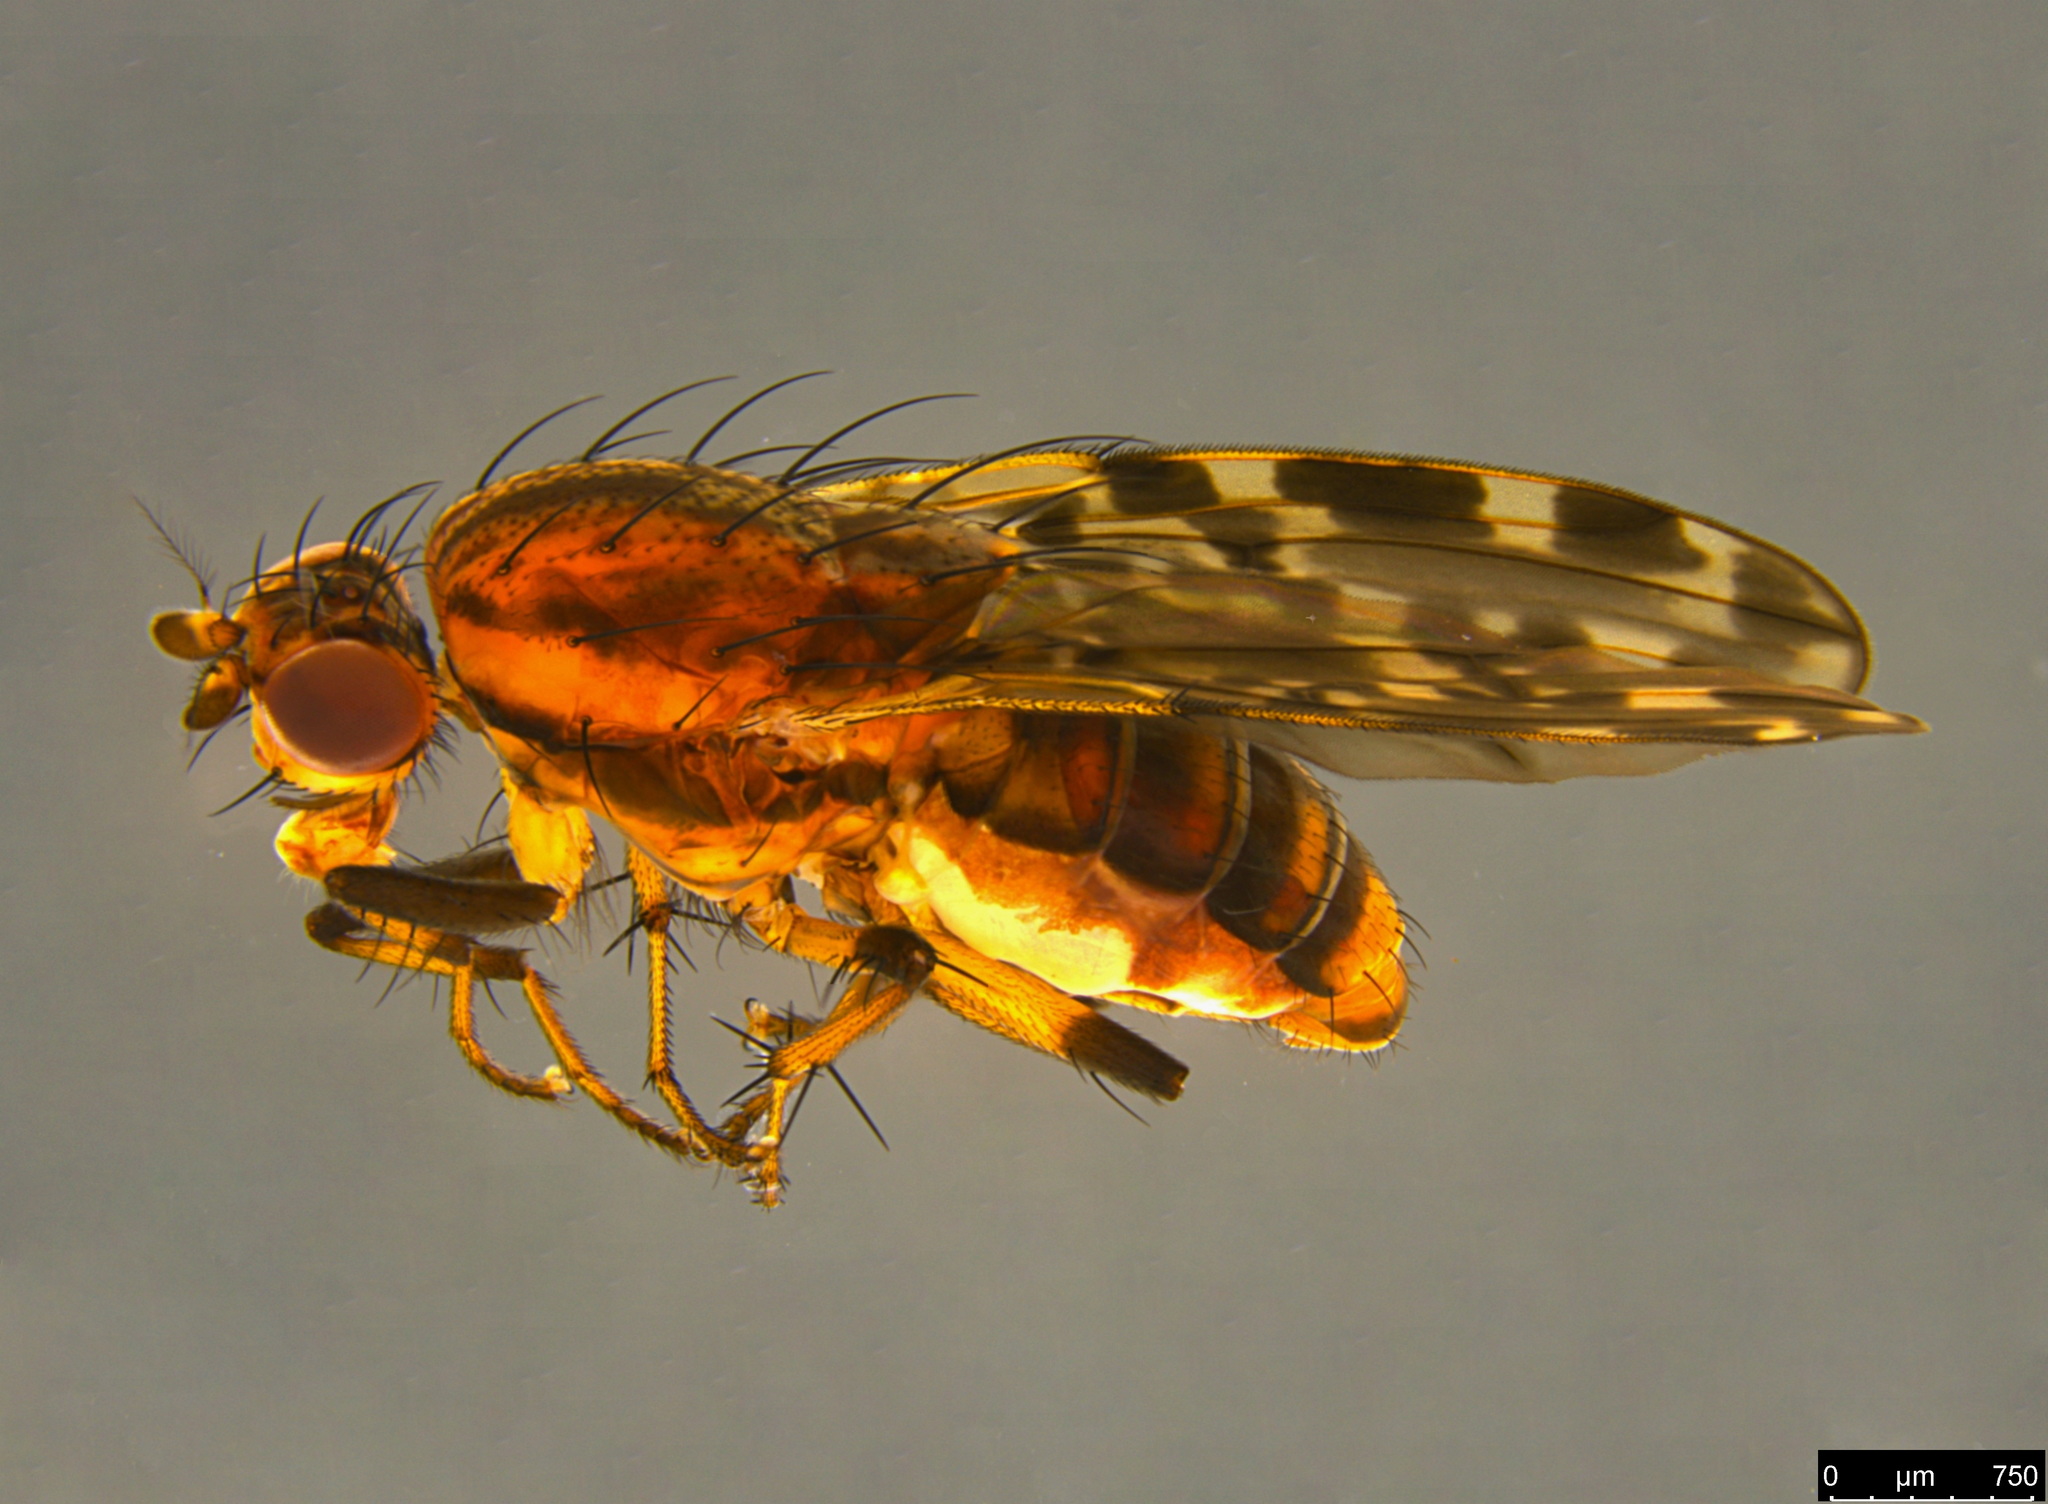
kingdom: Animalia
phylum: Arthropoda
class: Insecta
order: Diptera
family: Heleomyzidae
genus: Diplogeomyza
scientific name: Diplogeomyza maculipennis
